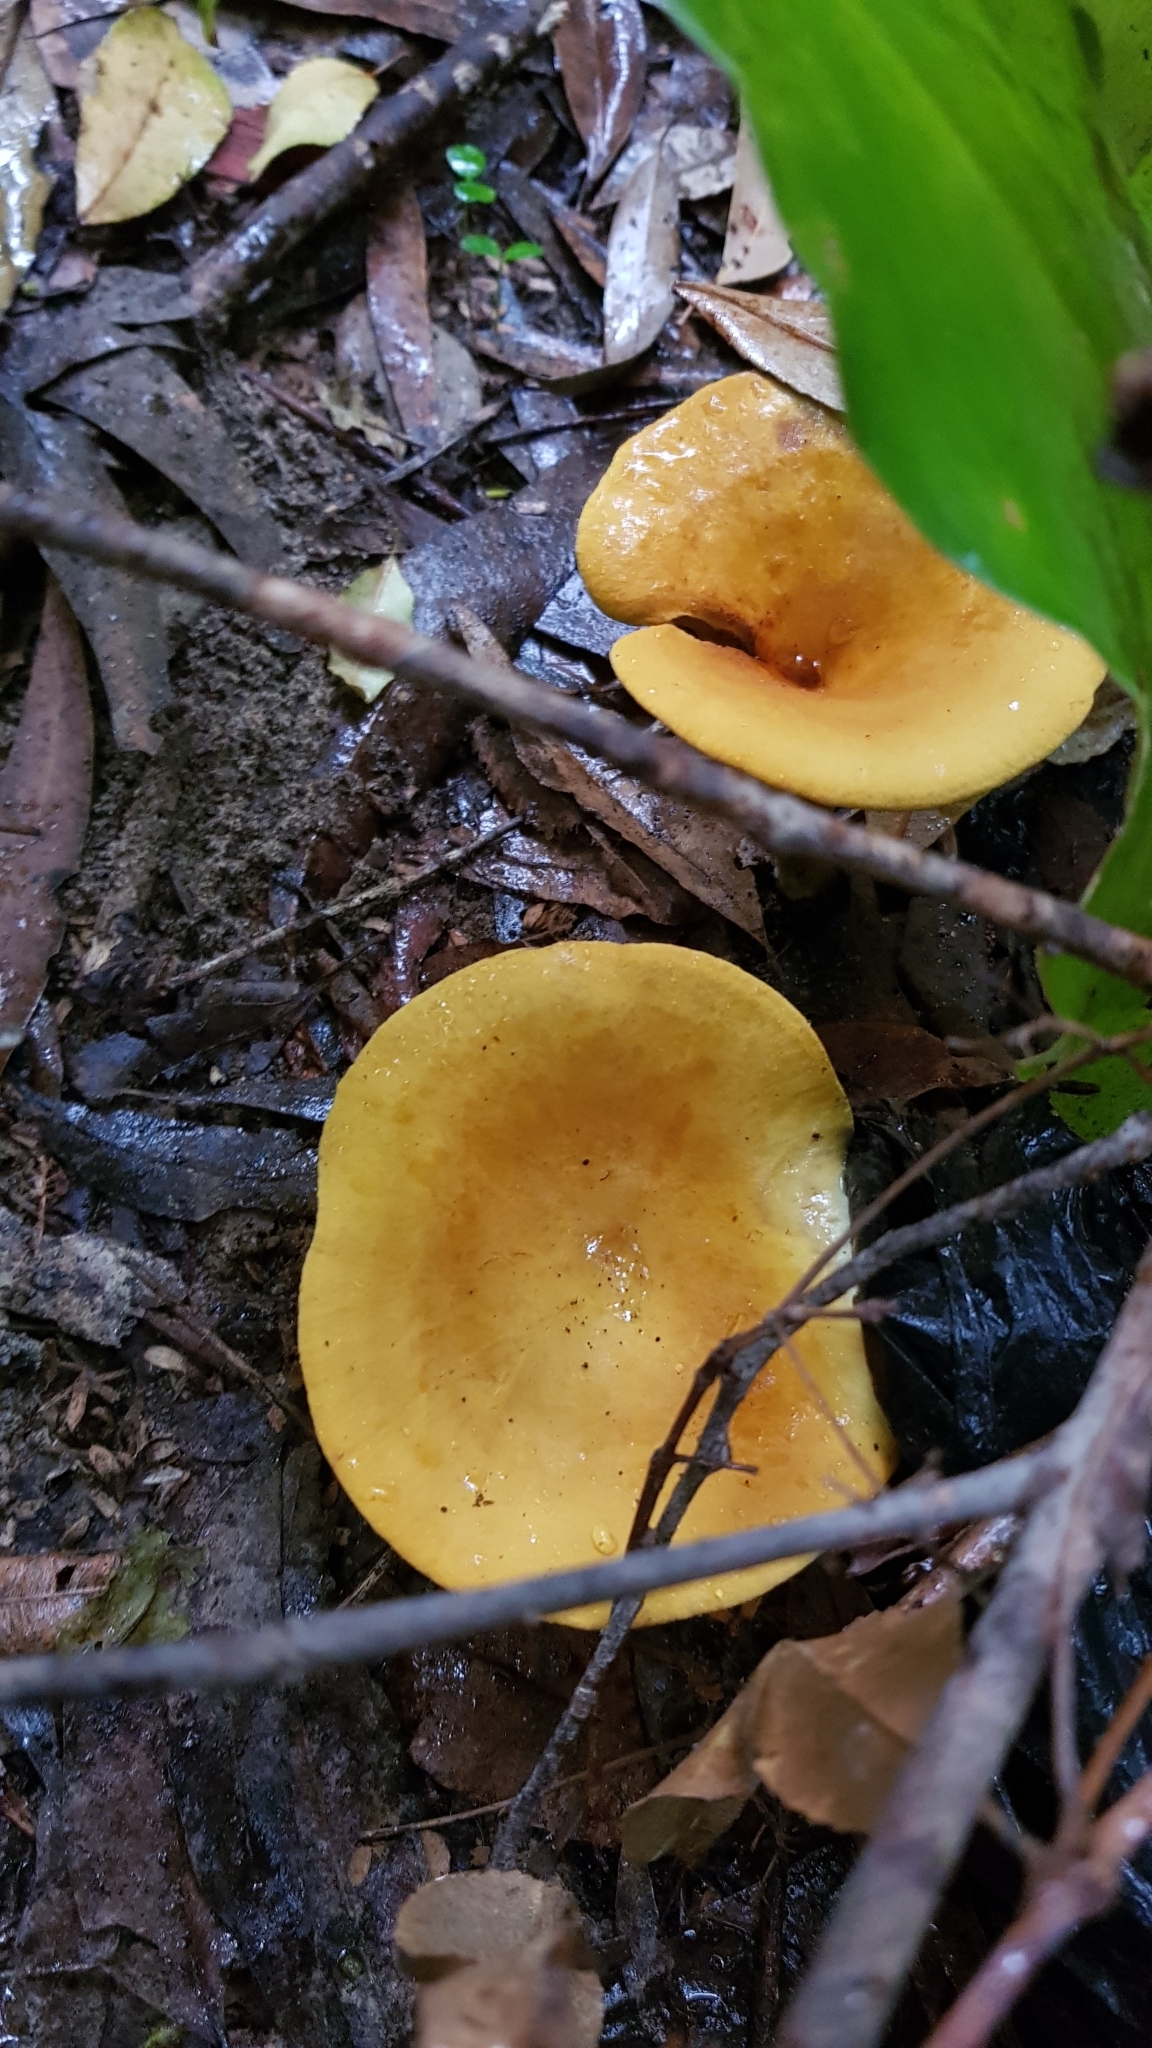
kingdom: Fungi
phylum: Basidiomycota
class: Agaricomycetes
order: Boletales
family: Serpulaceae
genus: Austropaxillus
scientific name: Austropaxillus infundibuliformis
